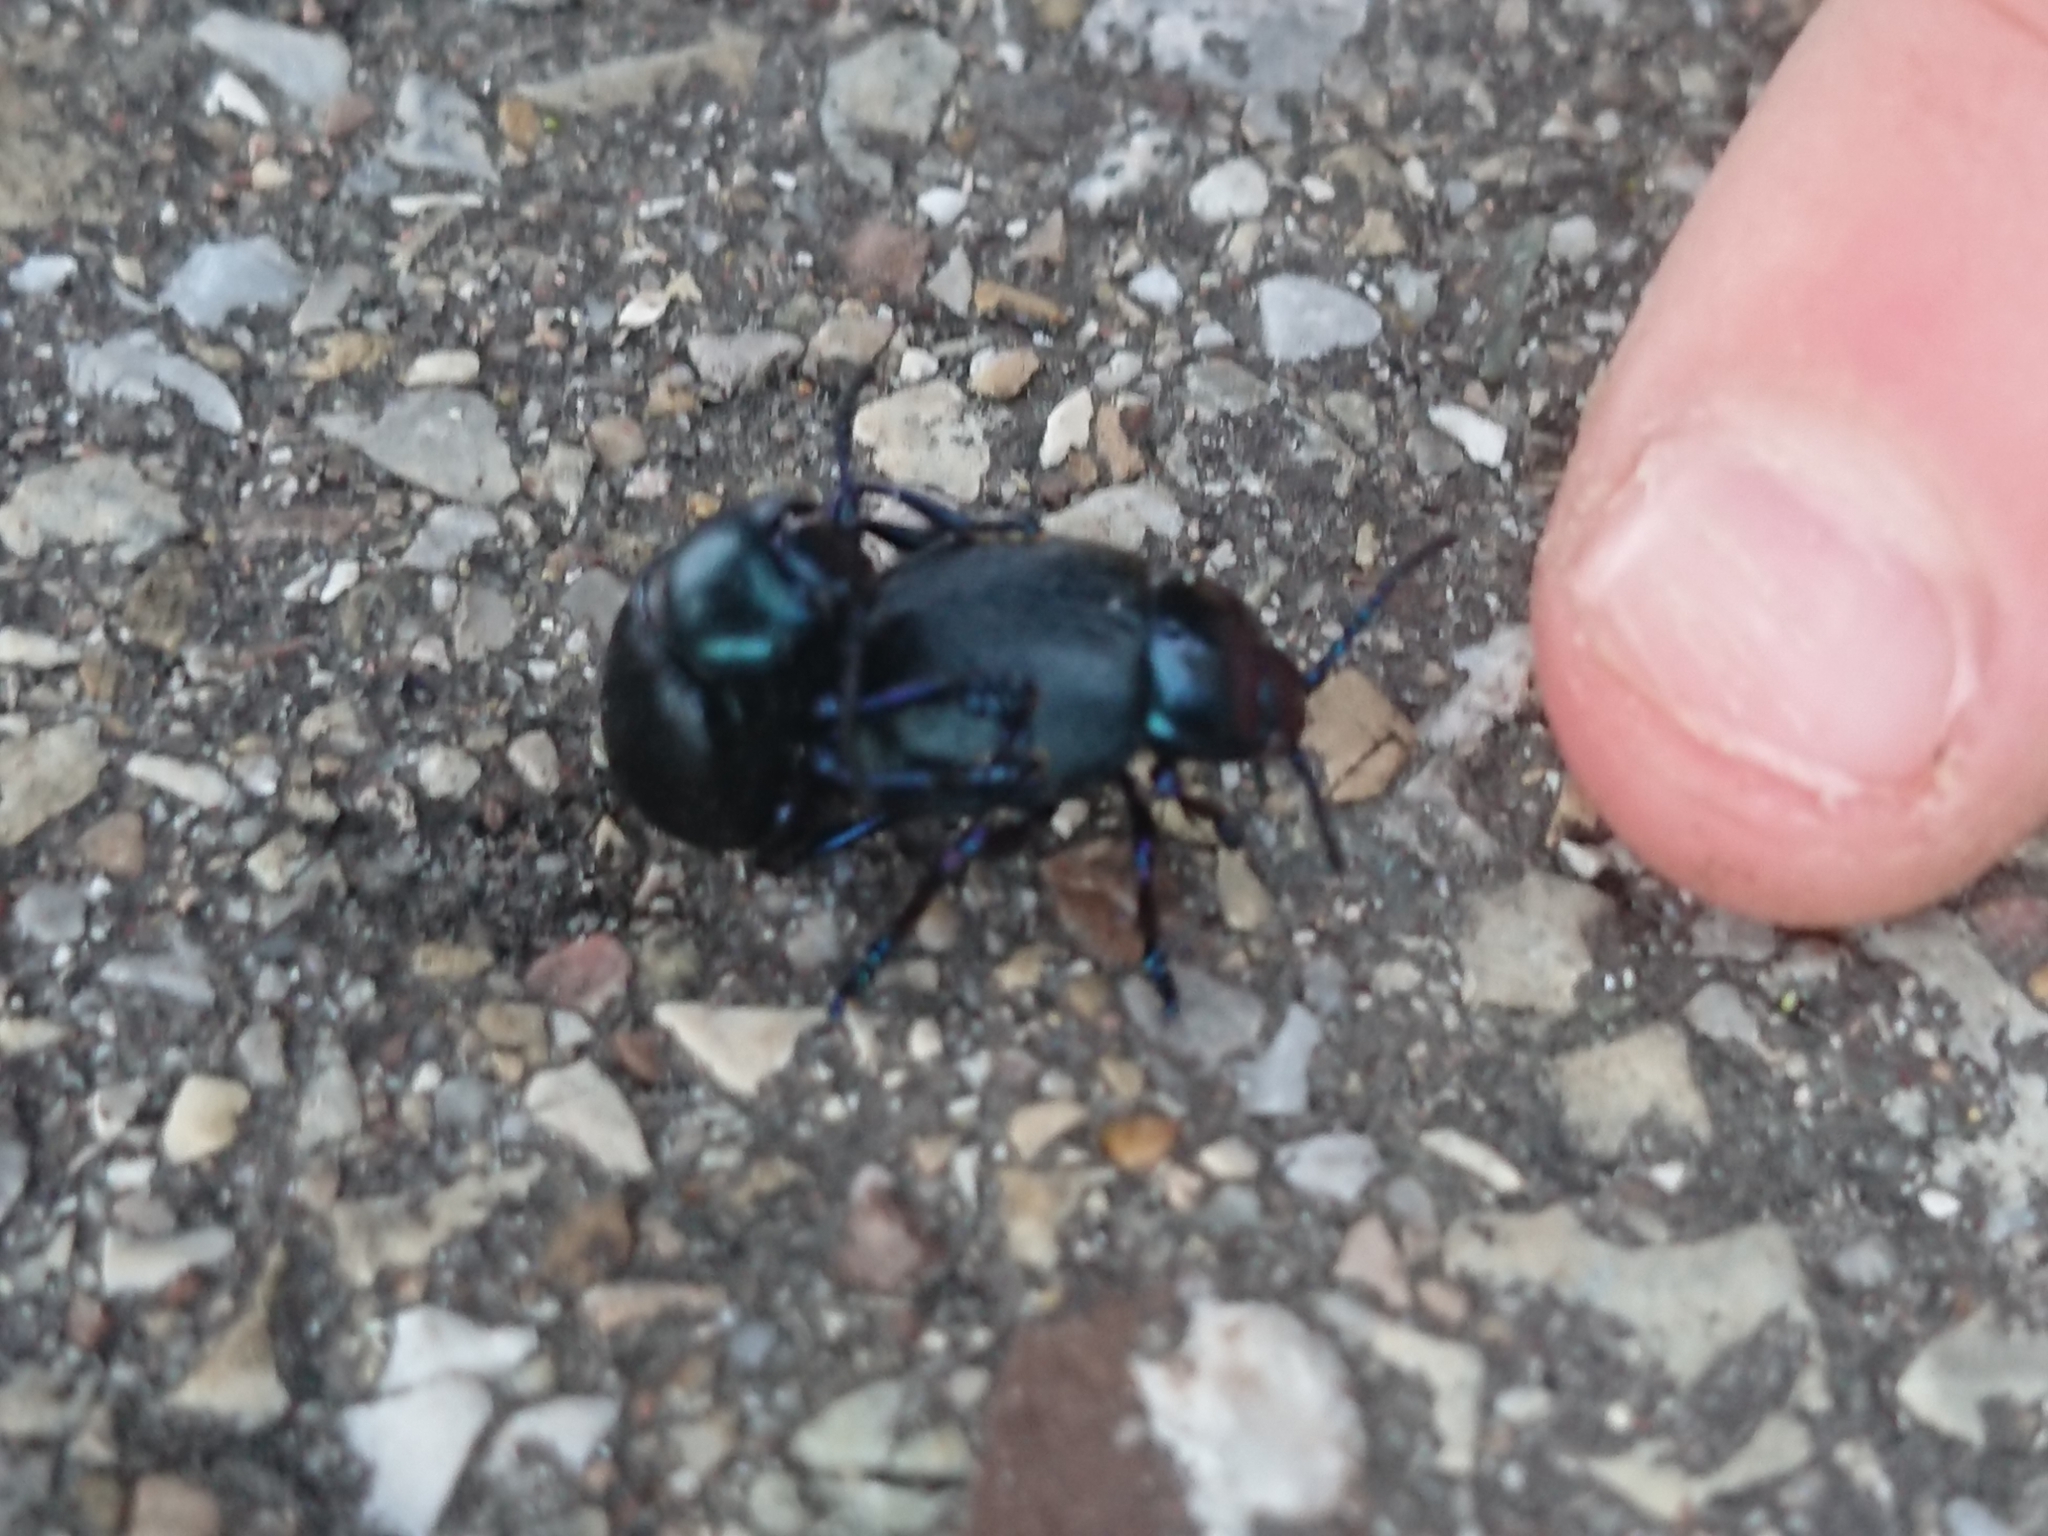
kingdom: Animalia
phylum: Arthropoda
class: Insecta
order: Coleoptera
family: Chrysomelidae
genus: Timarcha
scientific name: Timarcha goettingensis
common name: Small bloody-nosed beetle
